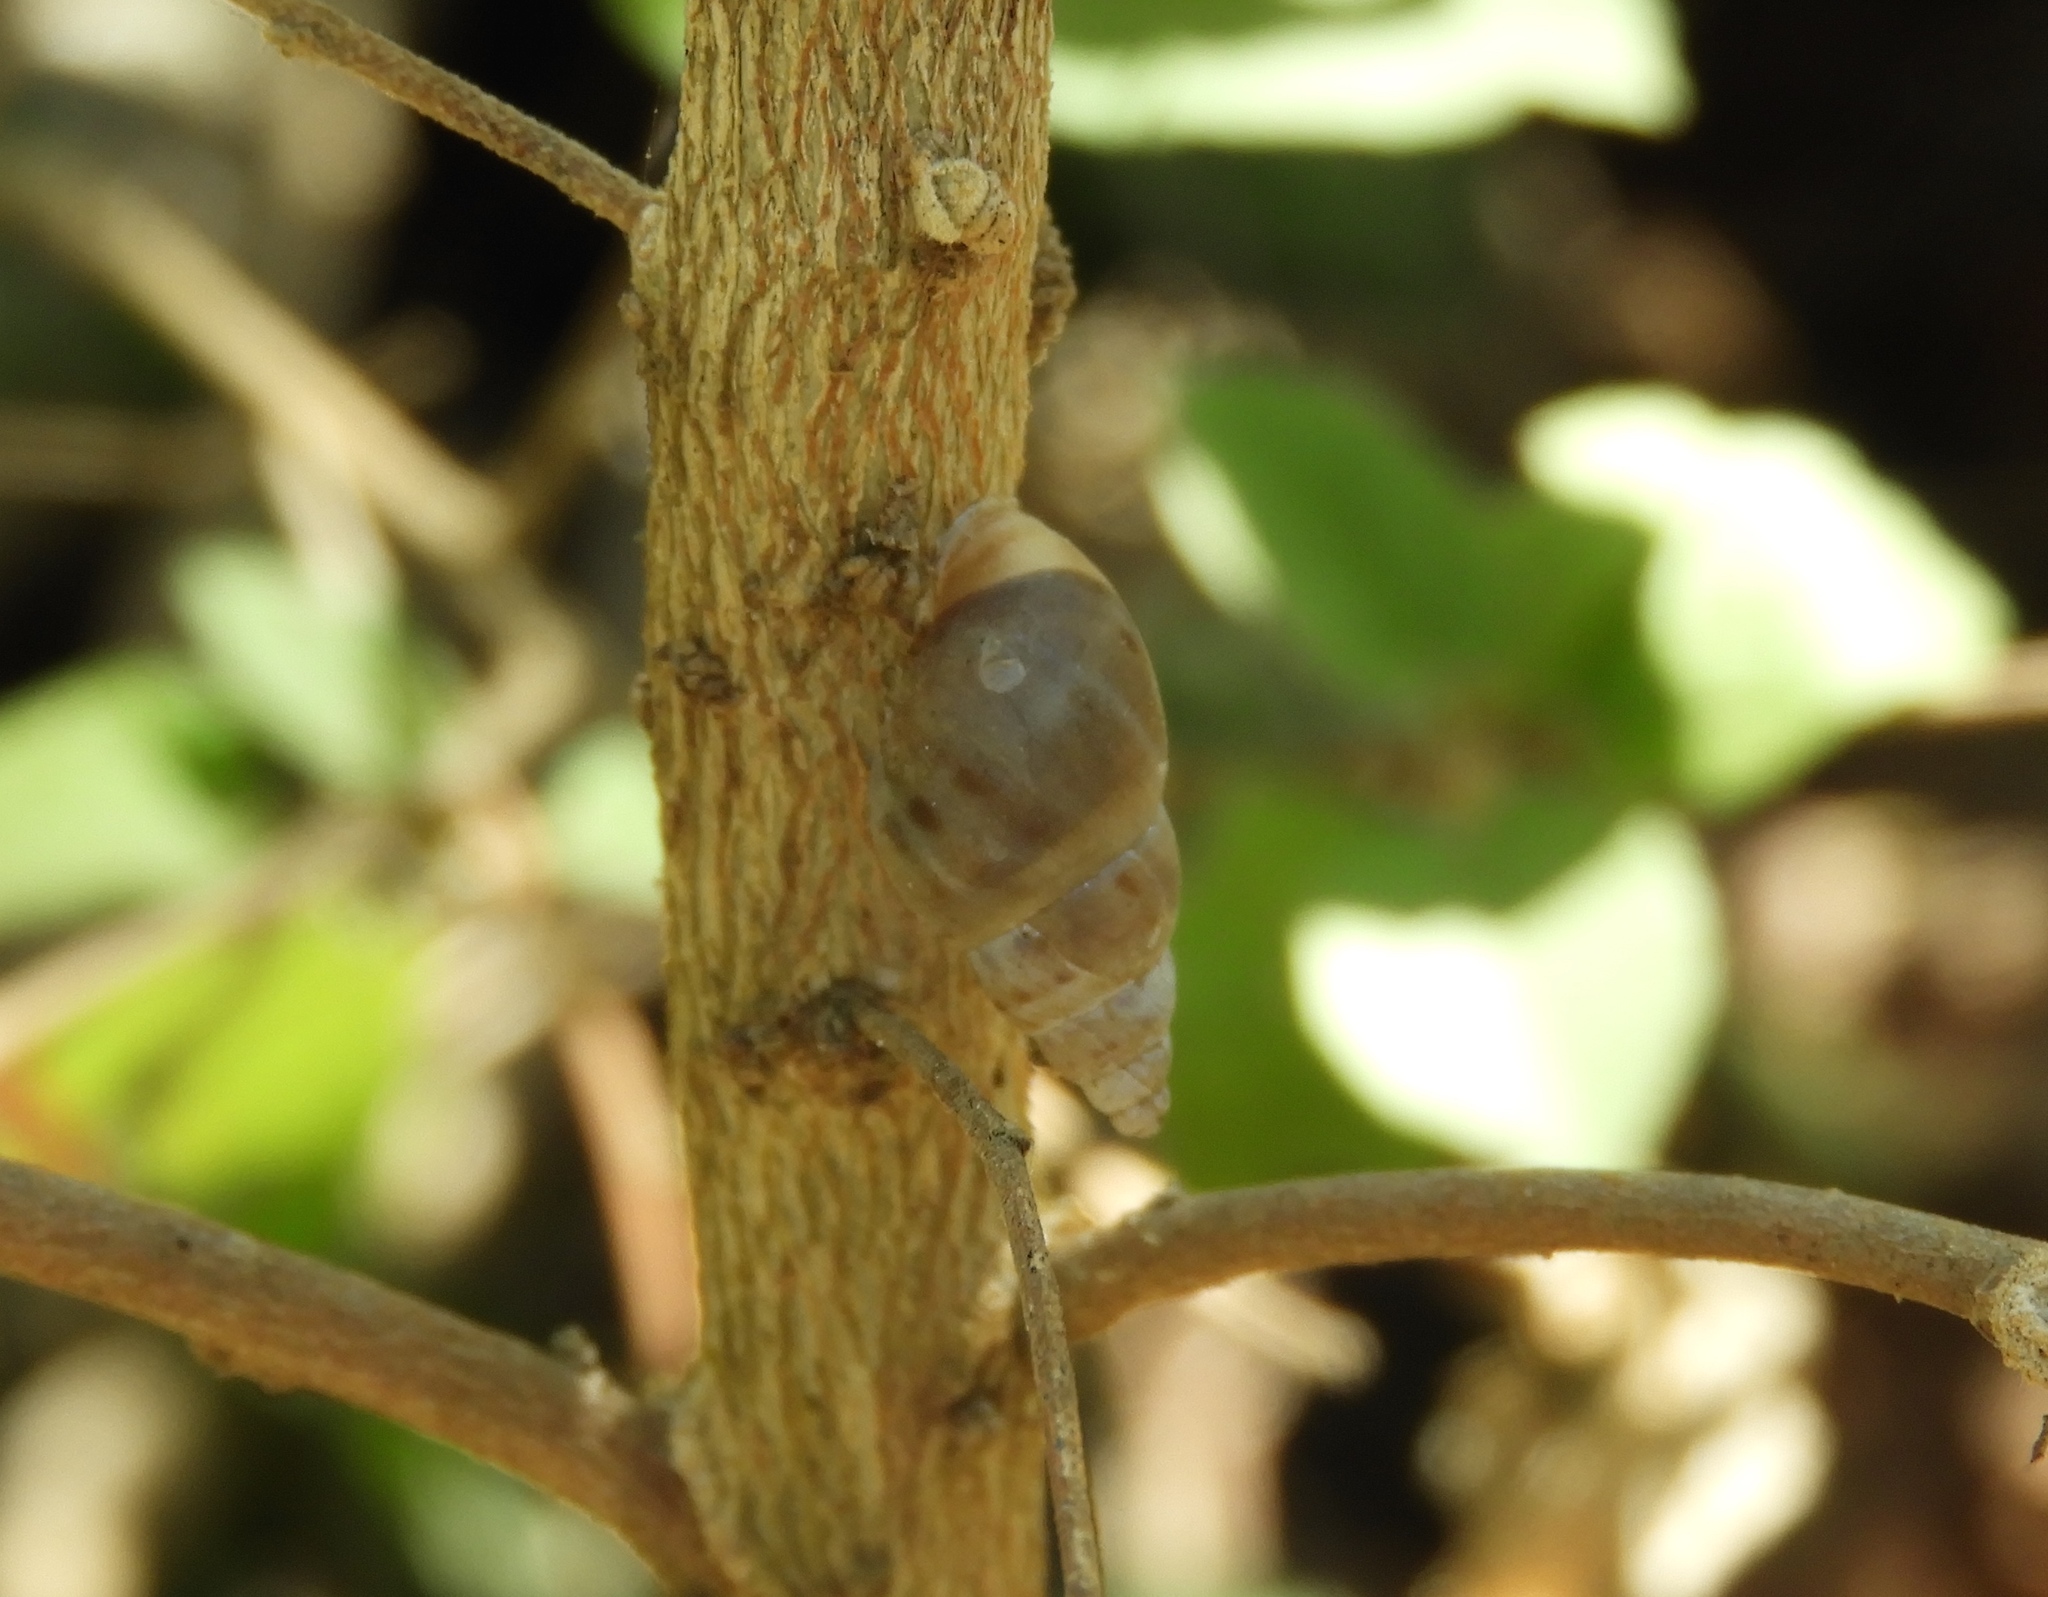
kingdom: Animalia
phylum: Mollusca
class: Gastropoda
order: Stylommatophora
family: Bulimulidae
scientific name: Bulimulidae
